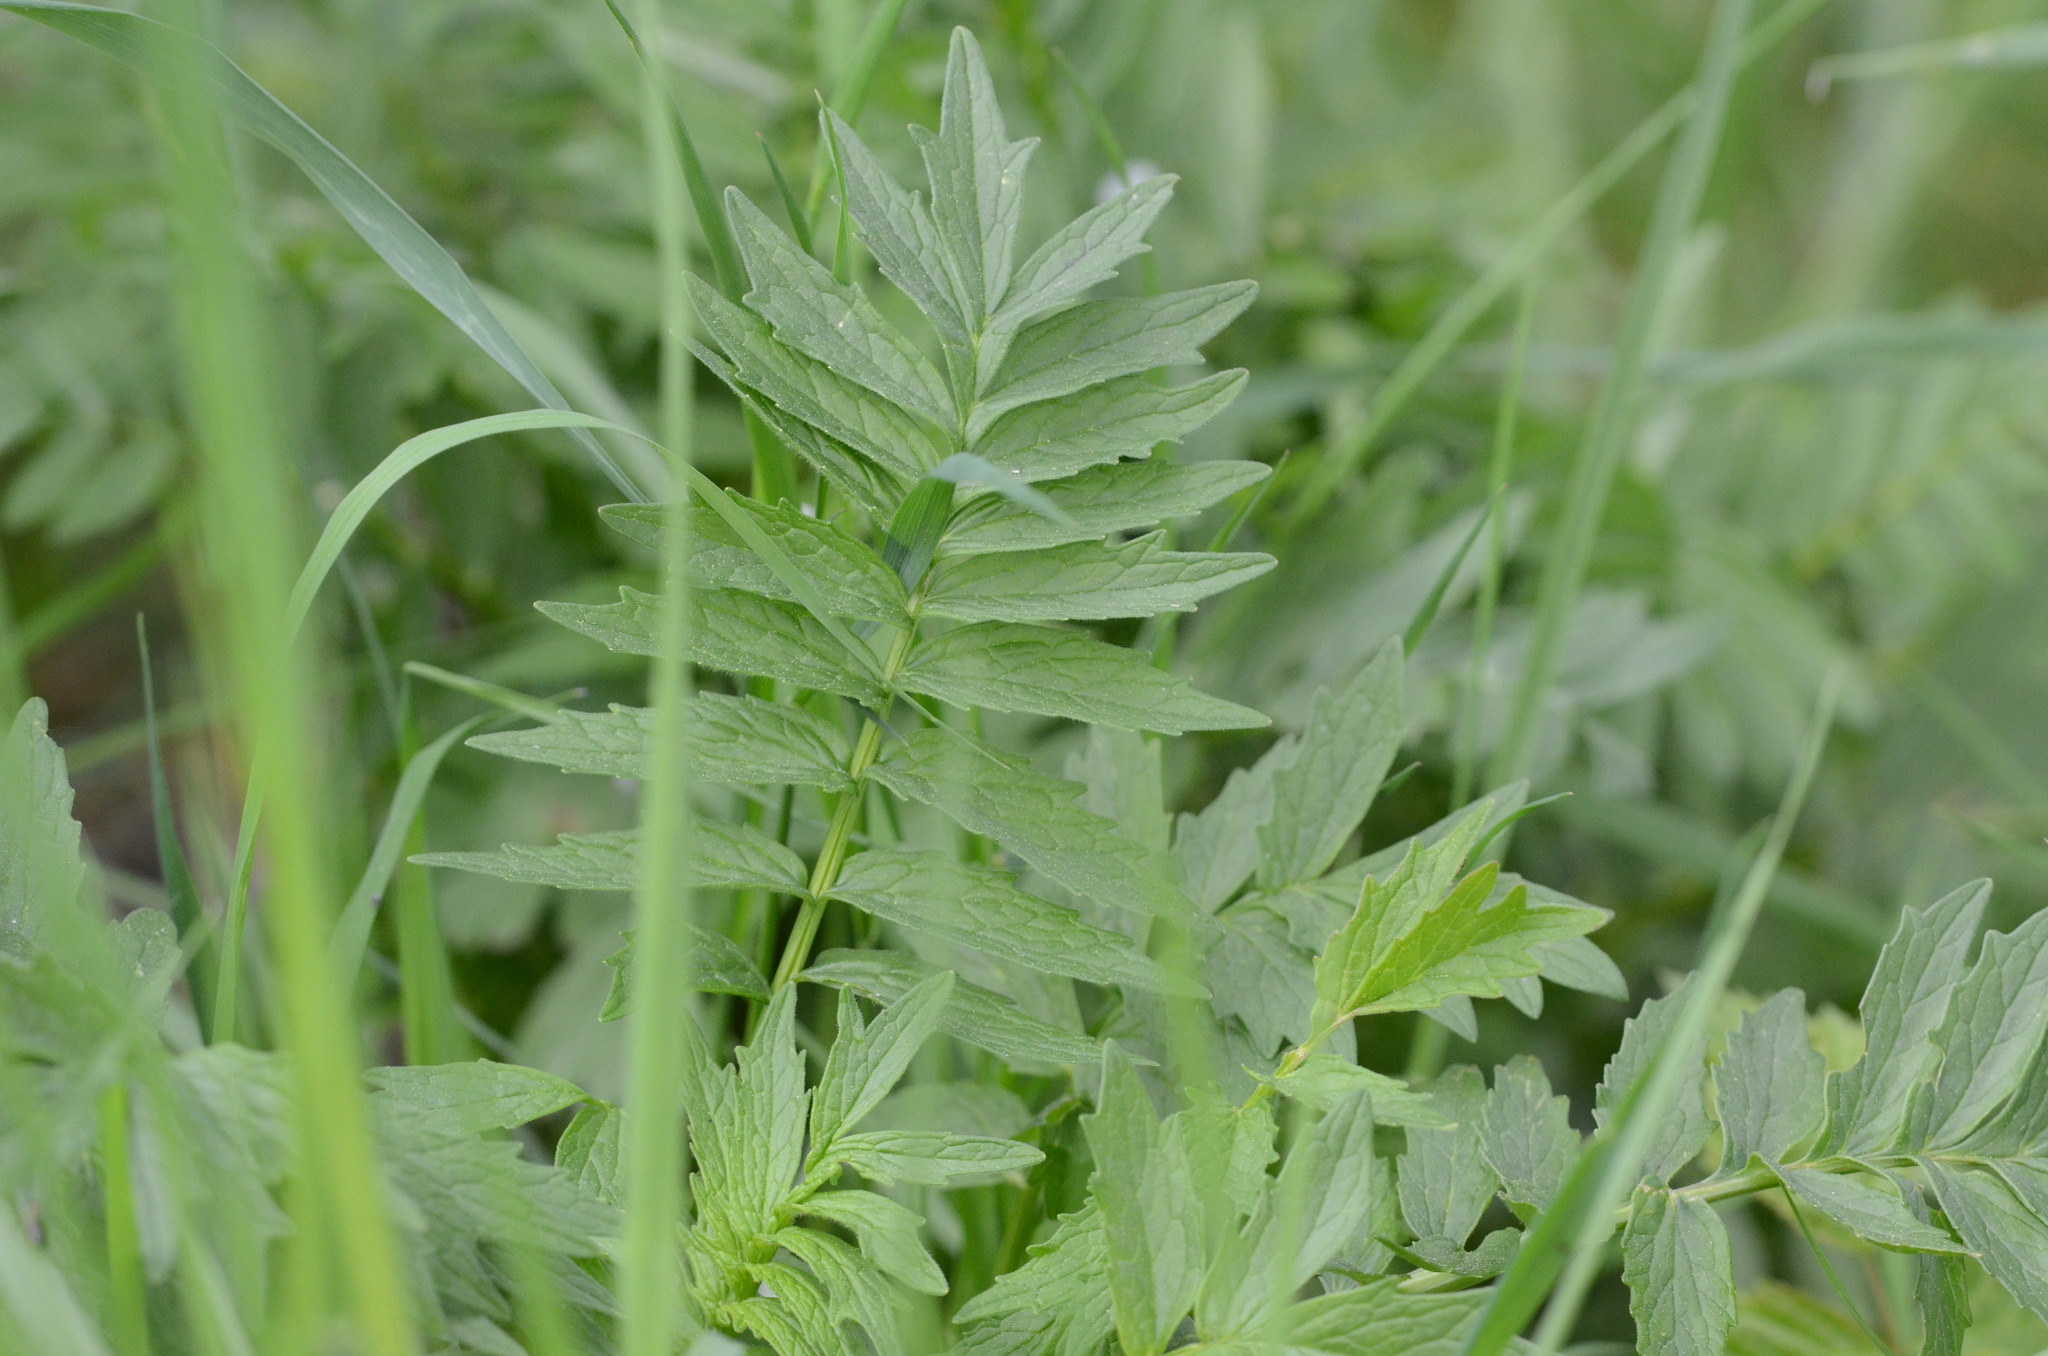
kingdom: Plantae
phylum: Tracheophyta
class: Magnoliopsida
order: Dipsacales
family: Caprifoliaceae
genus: Valeriana
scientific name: Valeriana officinalis
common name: Common valerian
